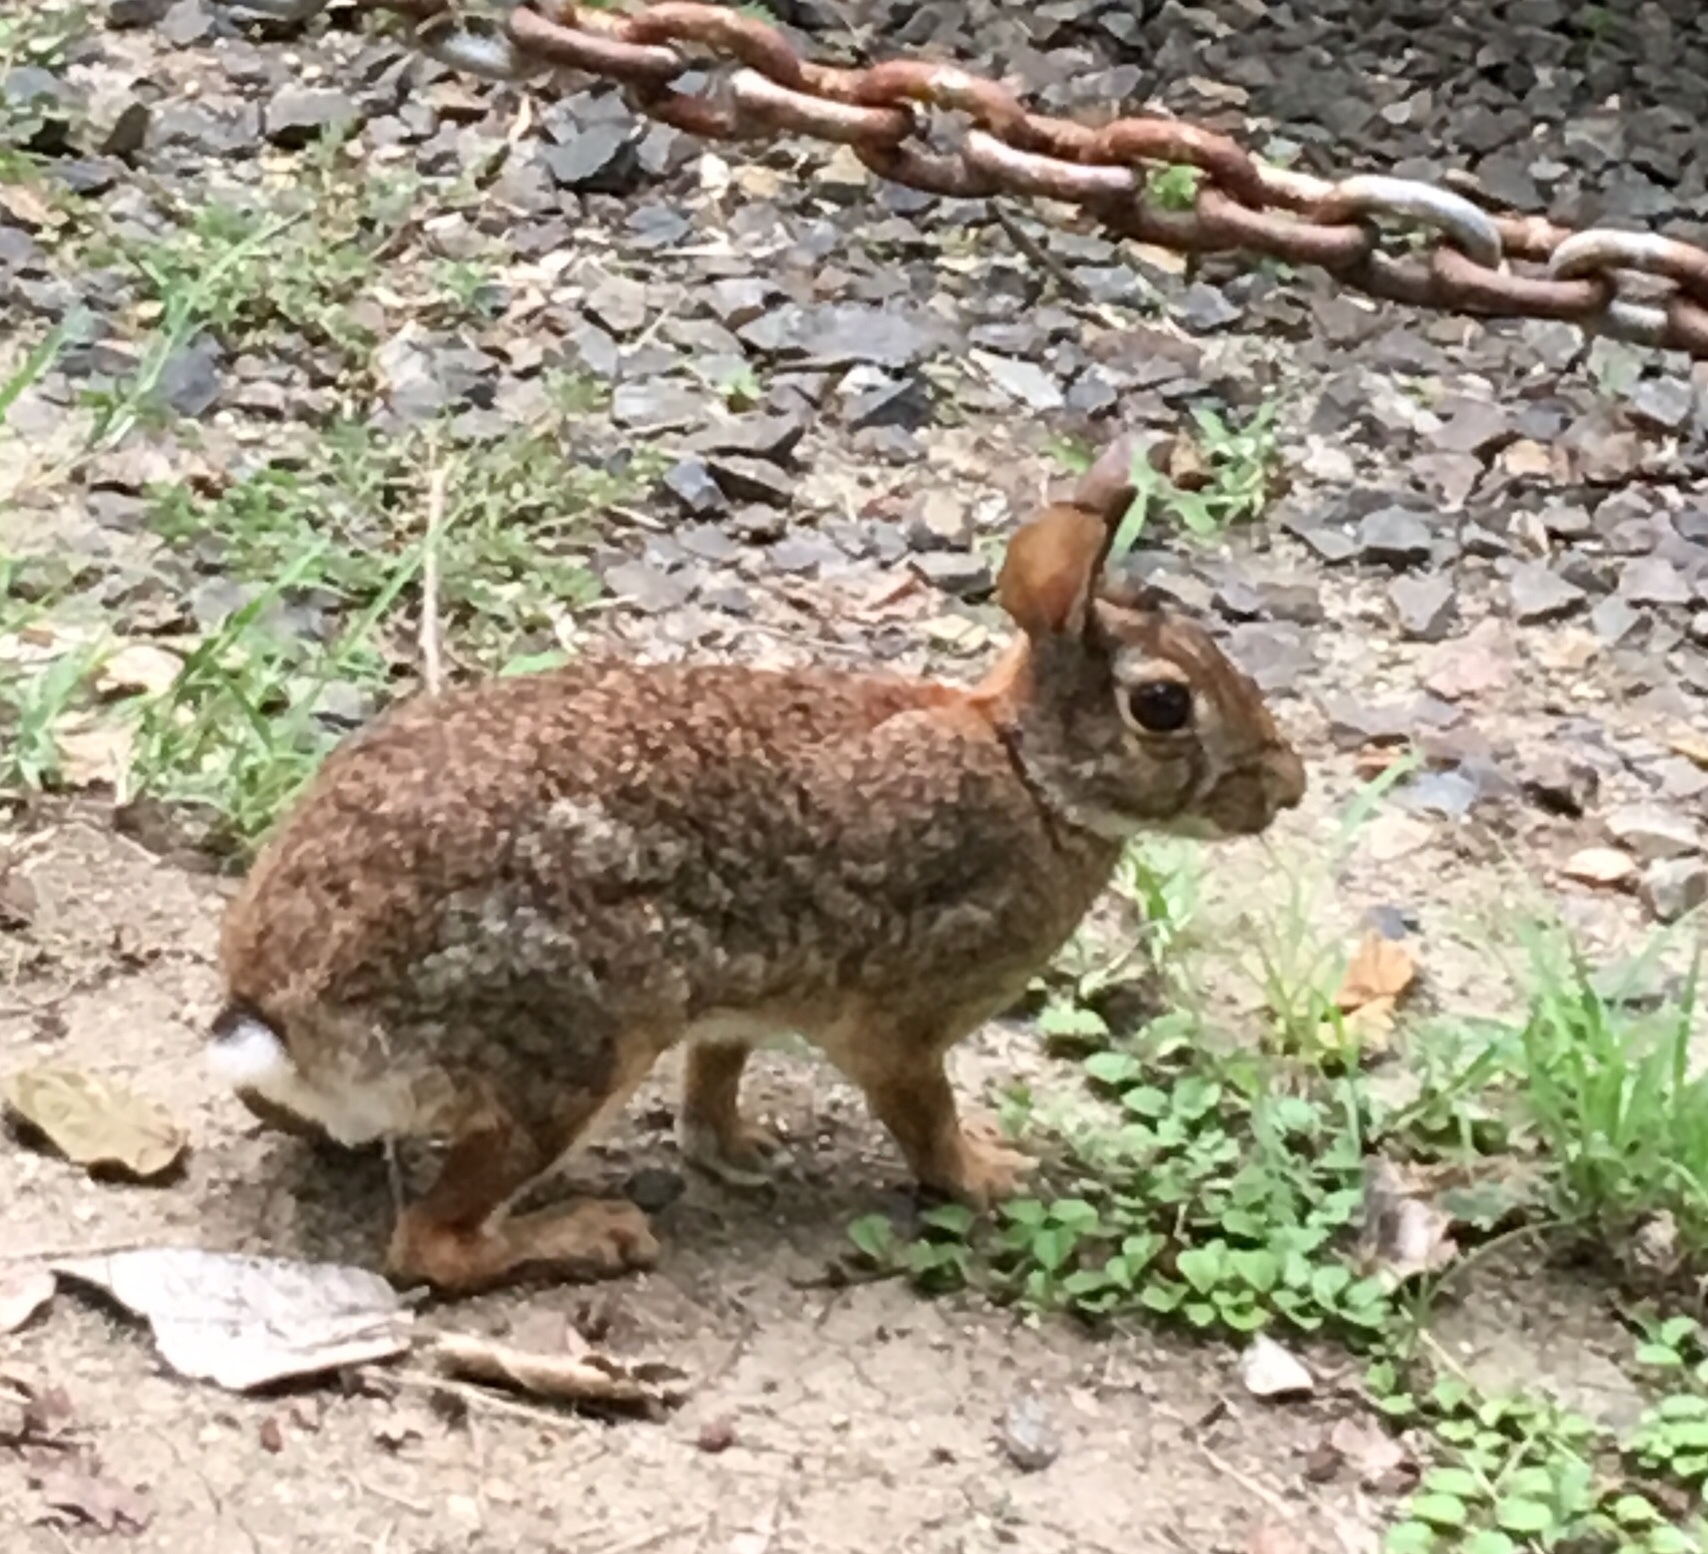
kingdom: Animalia
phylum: Chordata
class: Mammalia
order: Lagomorpha
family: Leporidae
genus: Sylvilagus
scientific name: Sylvilagus floridanus
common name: Eastern cottontail
